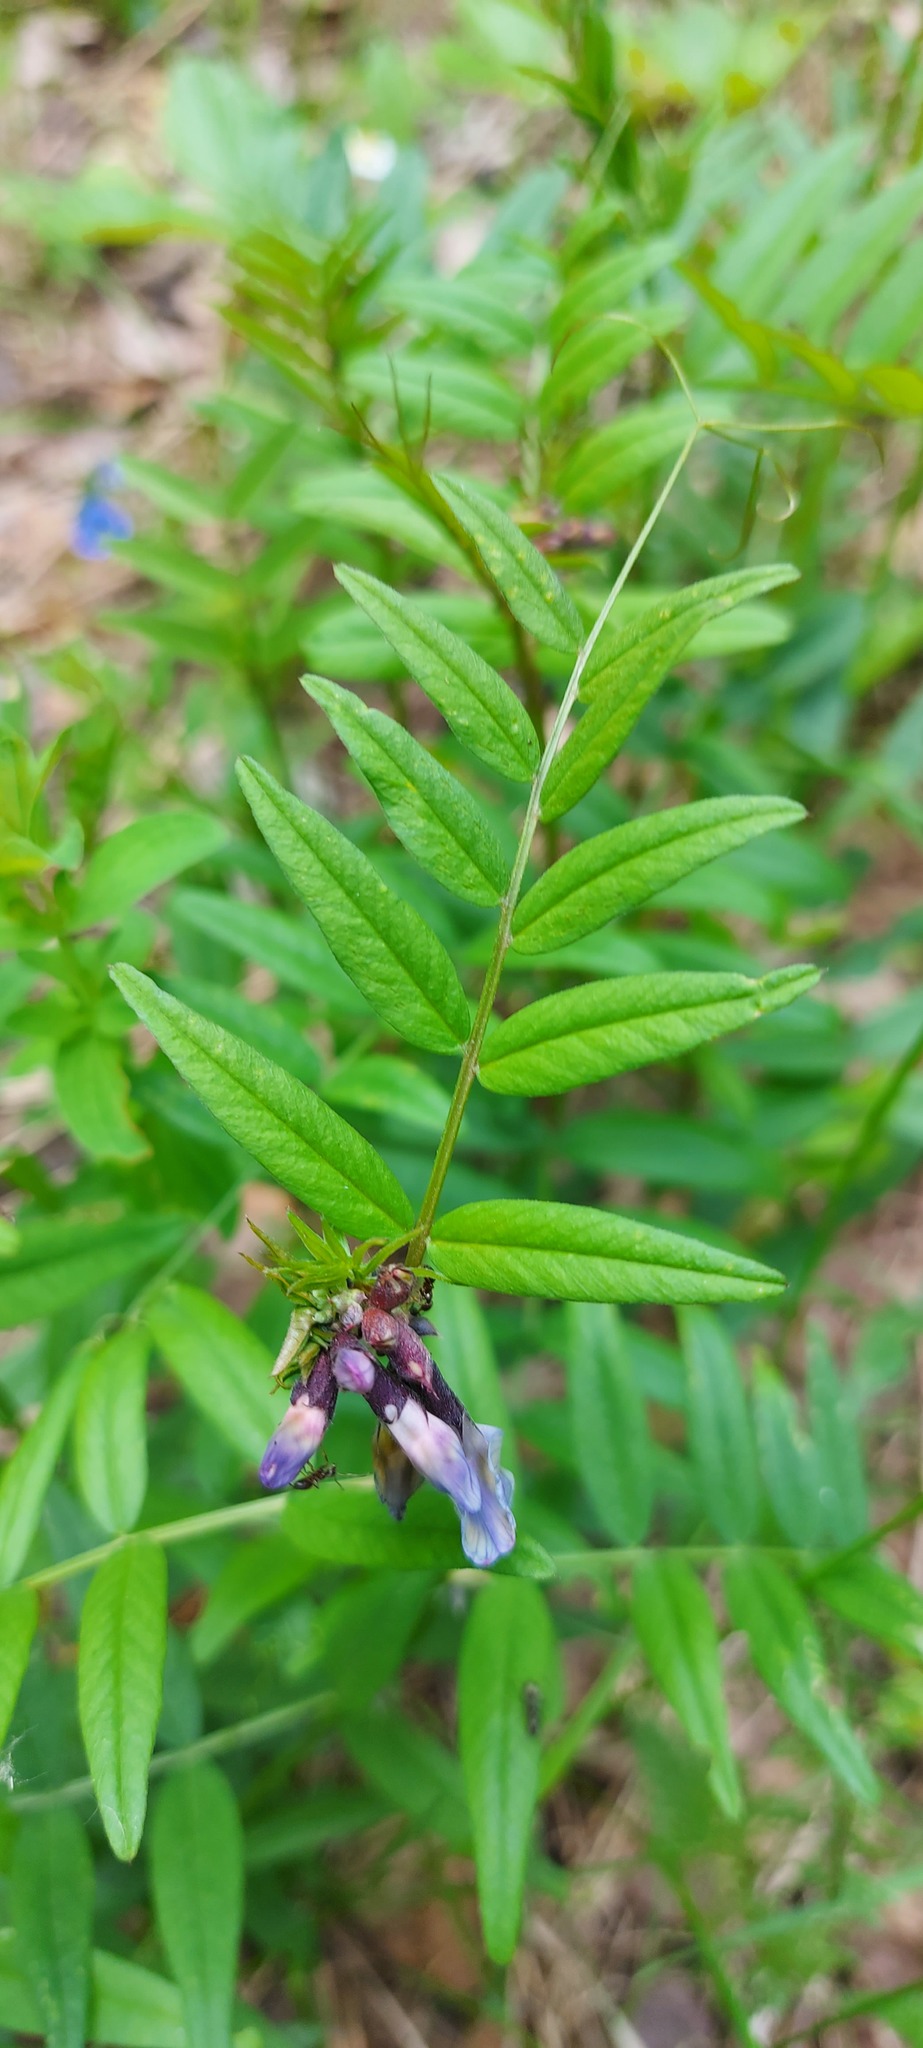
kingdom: Plantae
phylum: Tracheophyta
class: Magnoliopsida
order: Fabales
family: Fabaceae
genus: Vicia
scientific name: Vicia sepium
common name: Bush vetch
